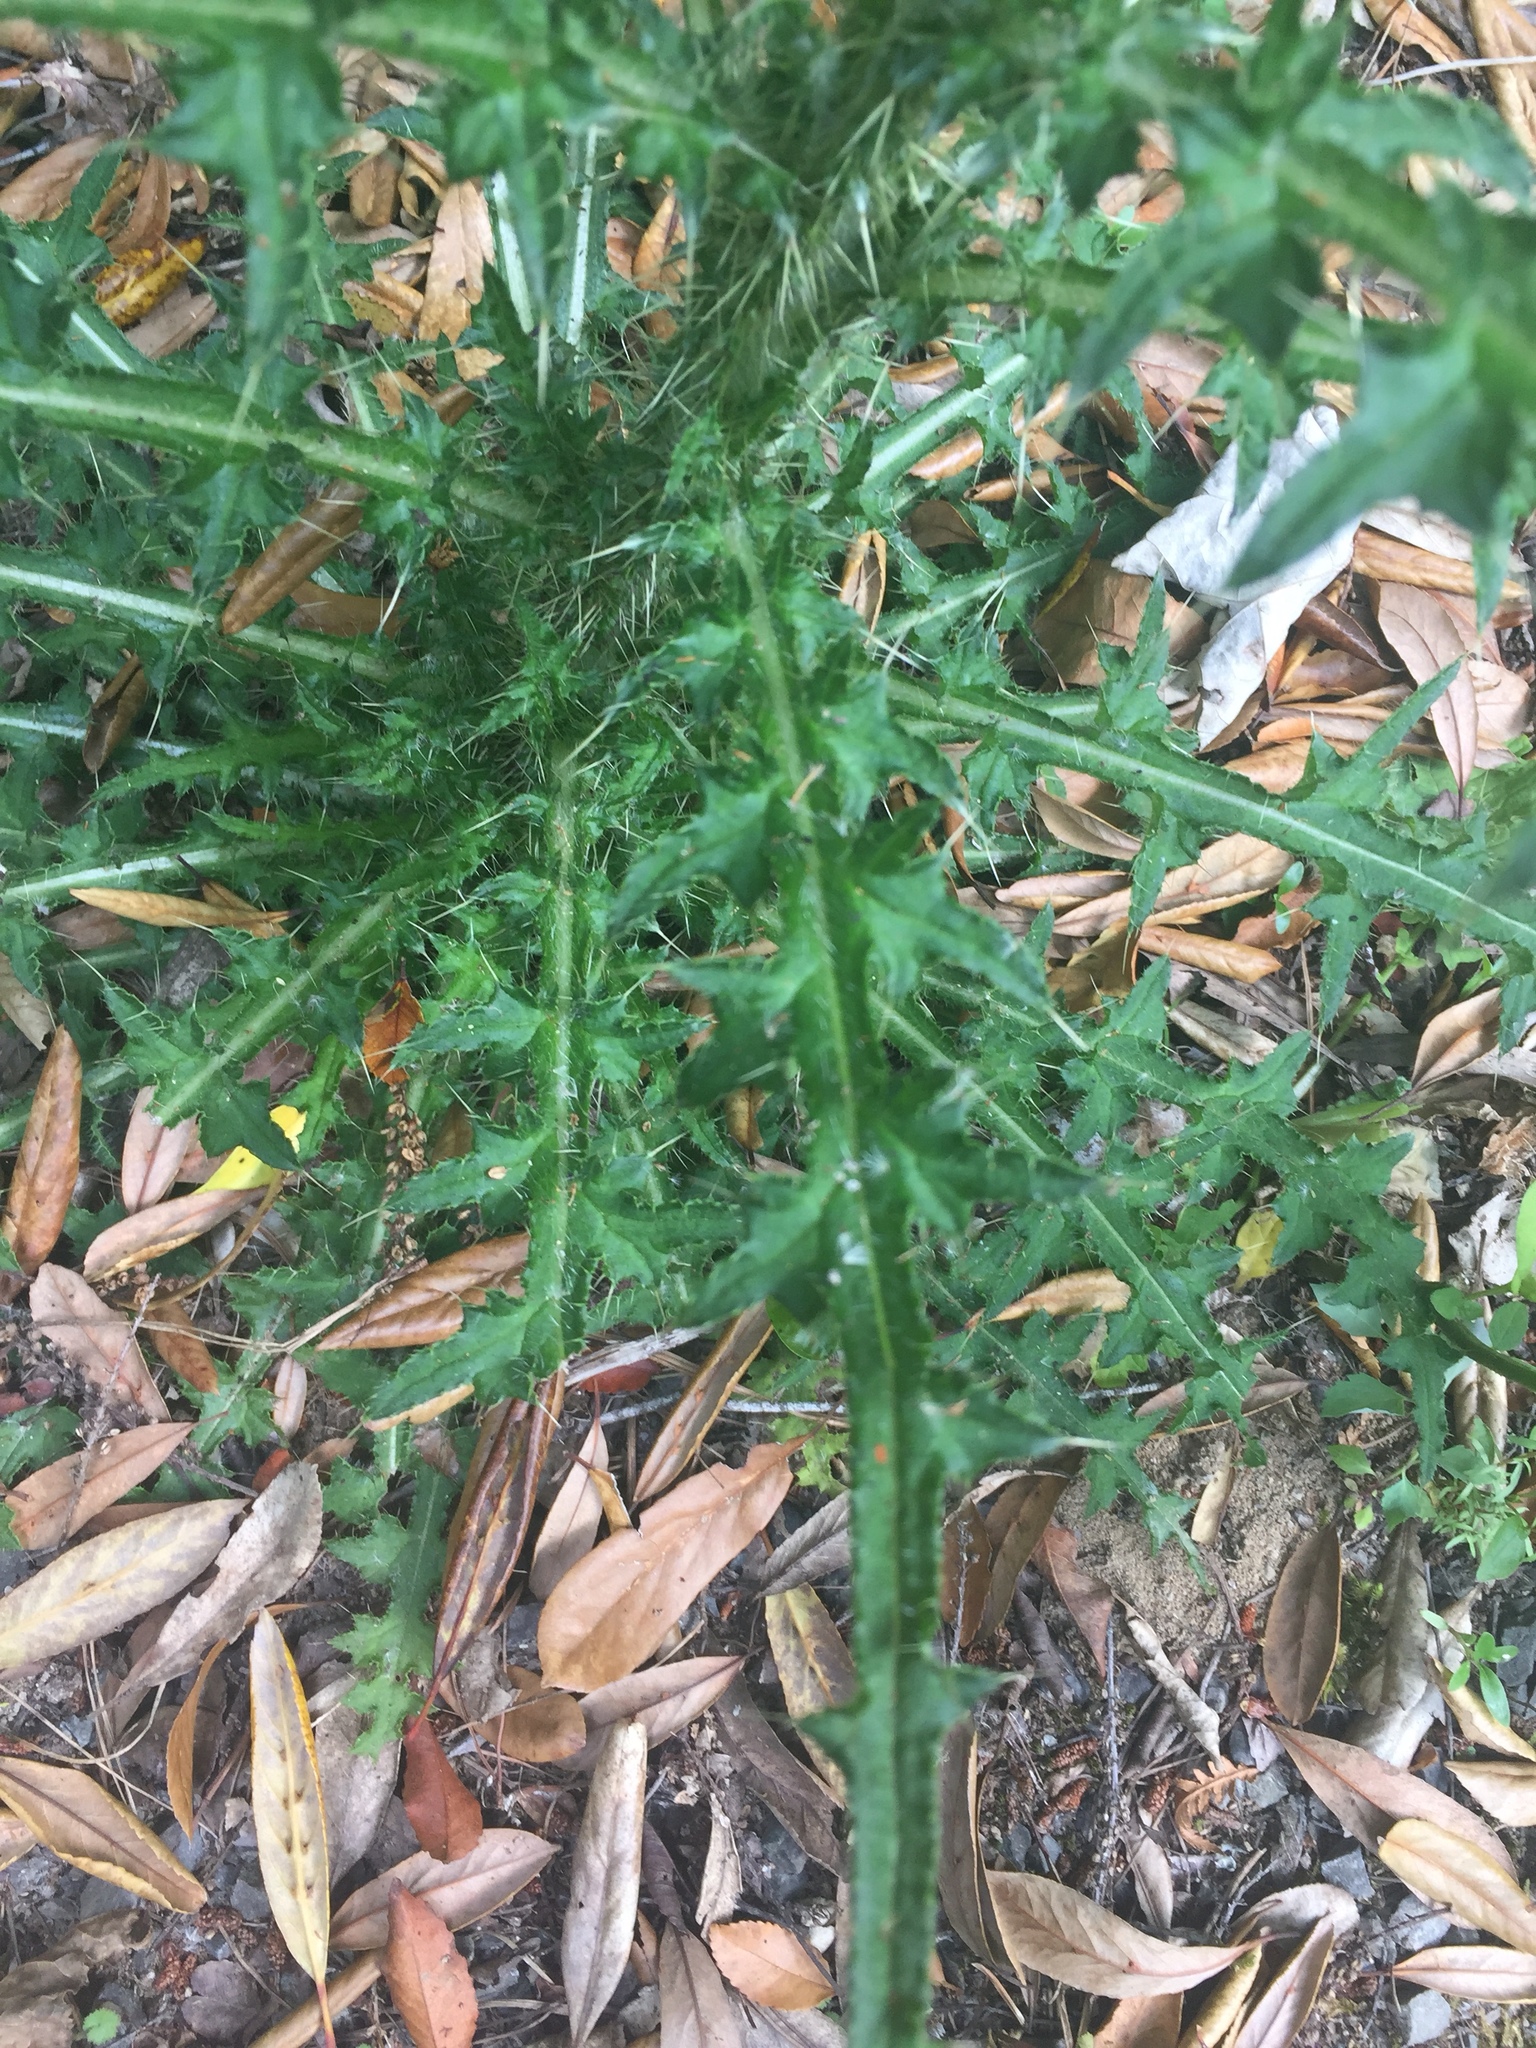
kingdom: Plantae
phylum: Tracheophyta
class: Magnoliopsida
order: Asterales
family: Asteraceae
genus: Cirsium
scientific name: Cirsium palustre
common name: Marsh thistle
